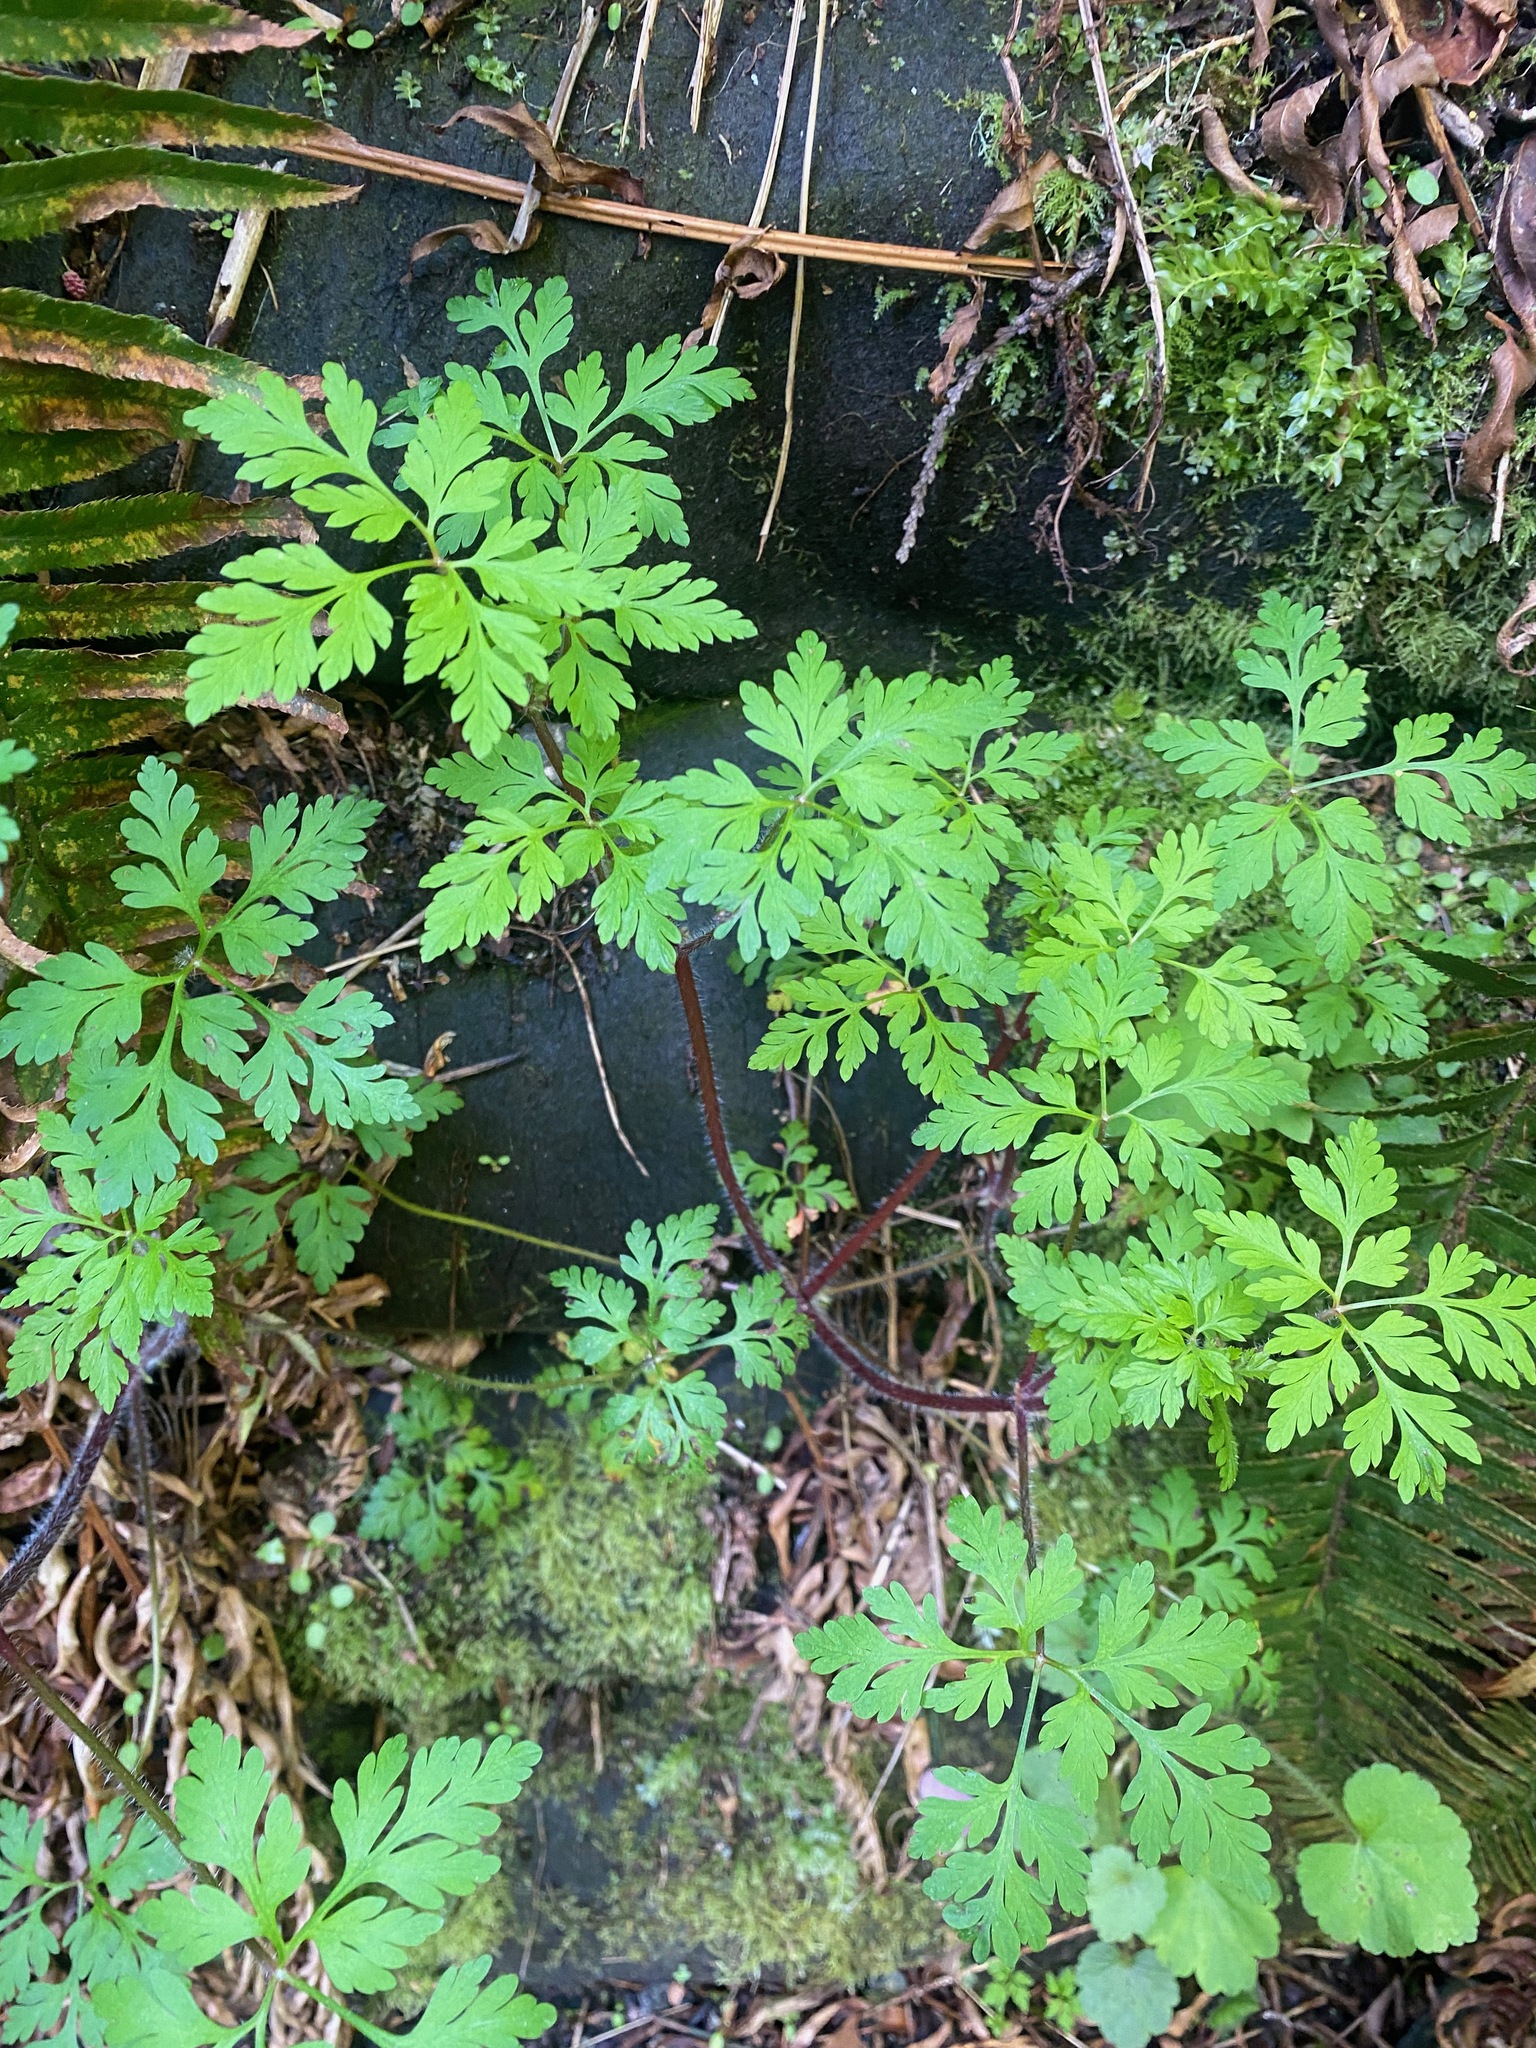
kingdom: Plantae
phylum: Tracheophyta
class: Magnoliopsida
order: Geraniales
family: Geraniaceae
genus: Geranium
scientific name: Geranium robertianum
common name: Herb-robert
